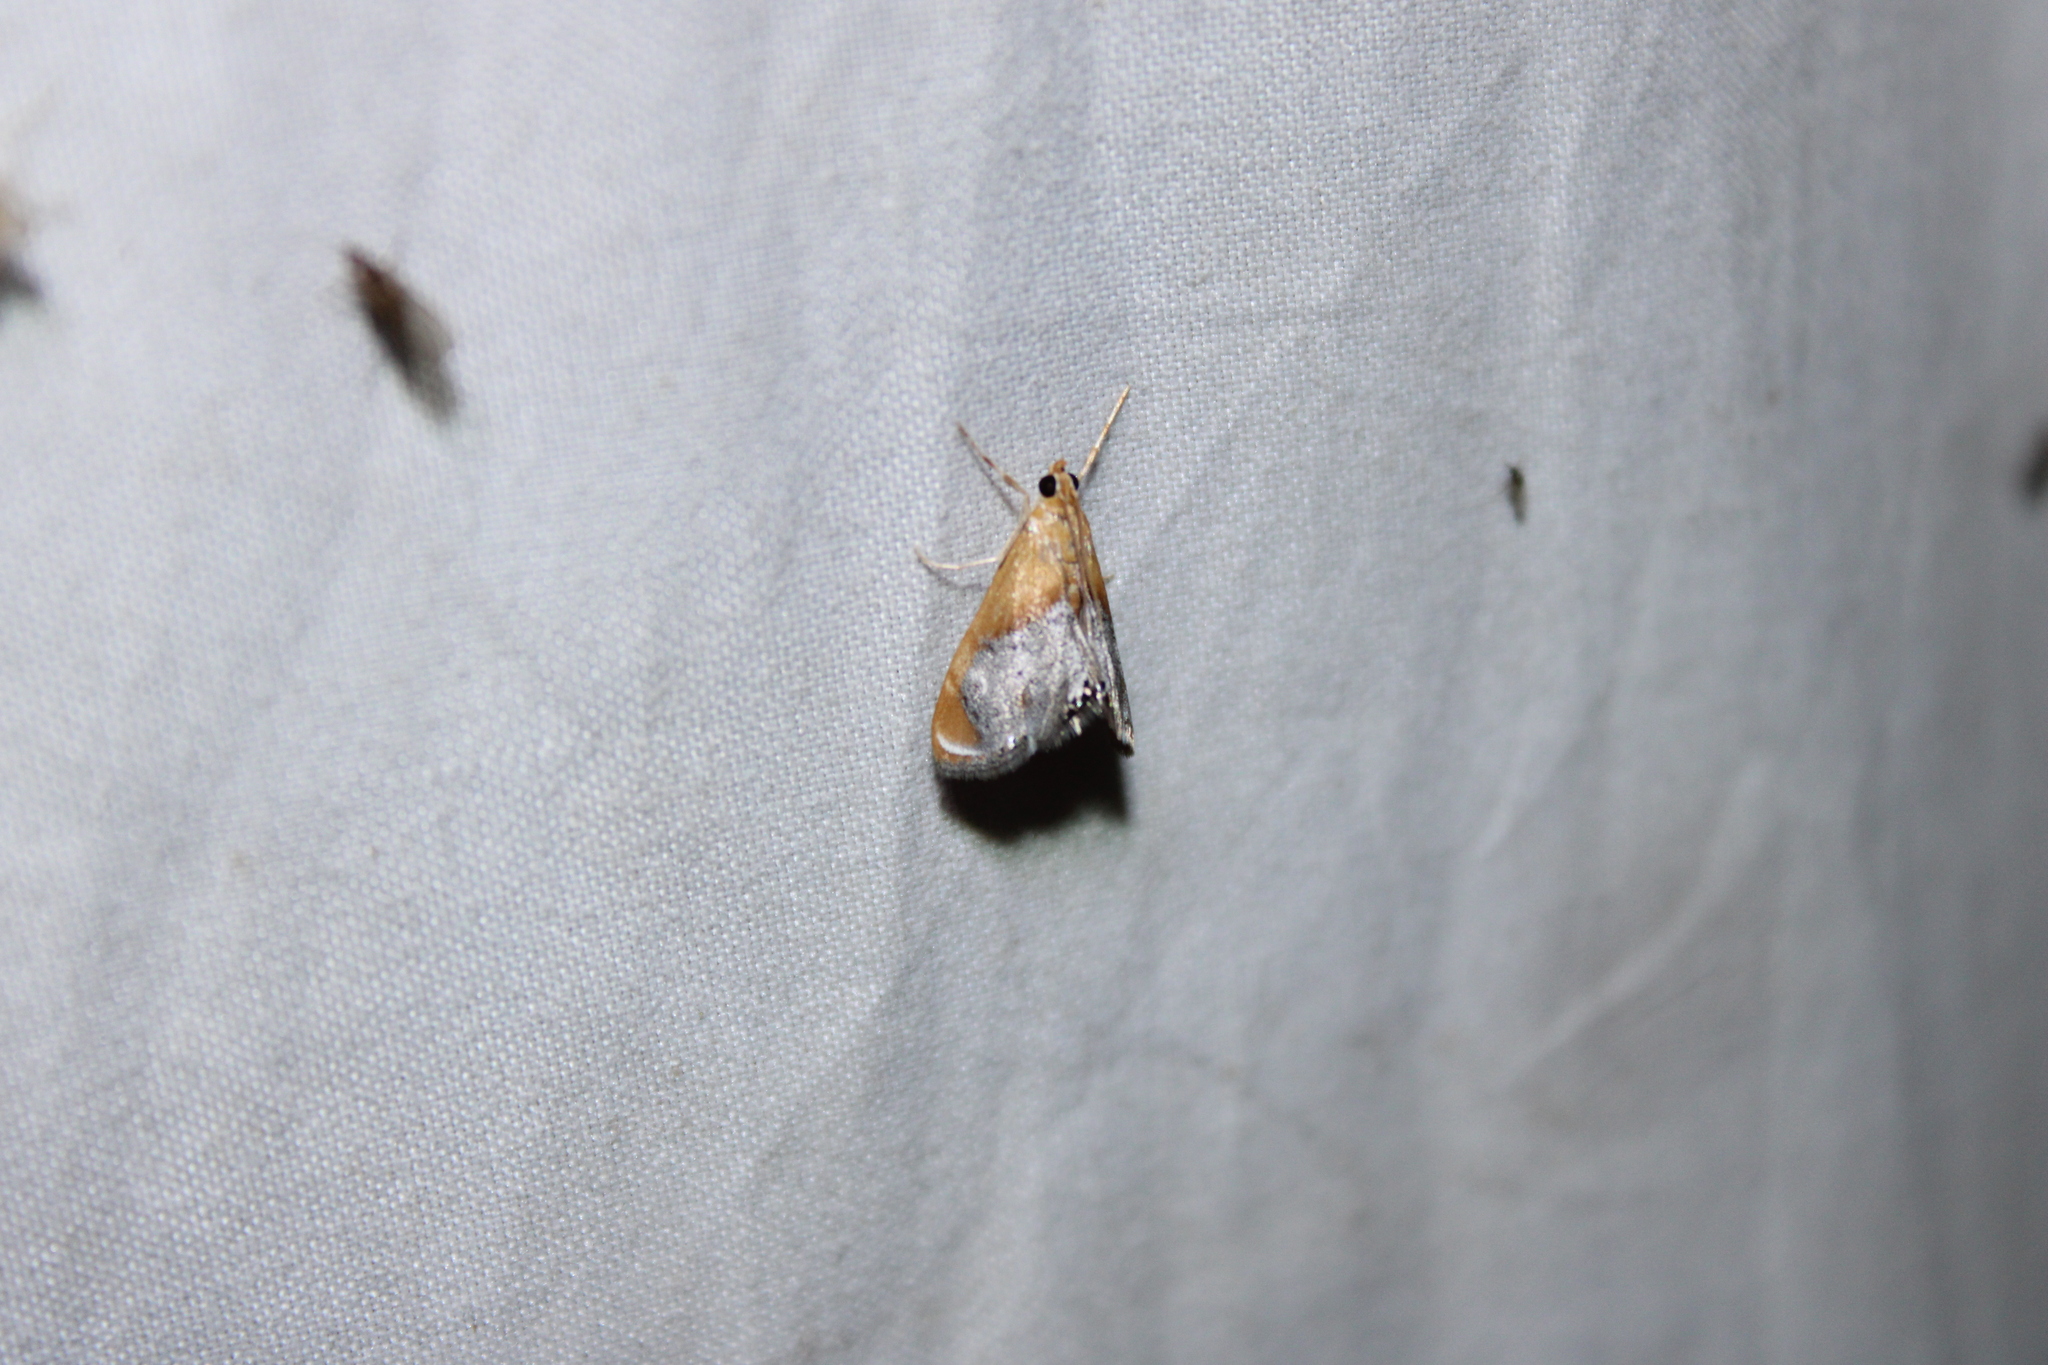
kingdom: Animalia
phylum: Arthropoda
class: Insecta
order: Lepidoptera
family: Crambidae
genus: Chalcoela
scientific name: Chalcoela iphitalis
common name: Sooty-winged chalcoela moth
